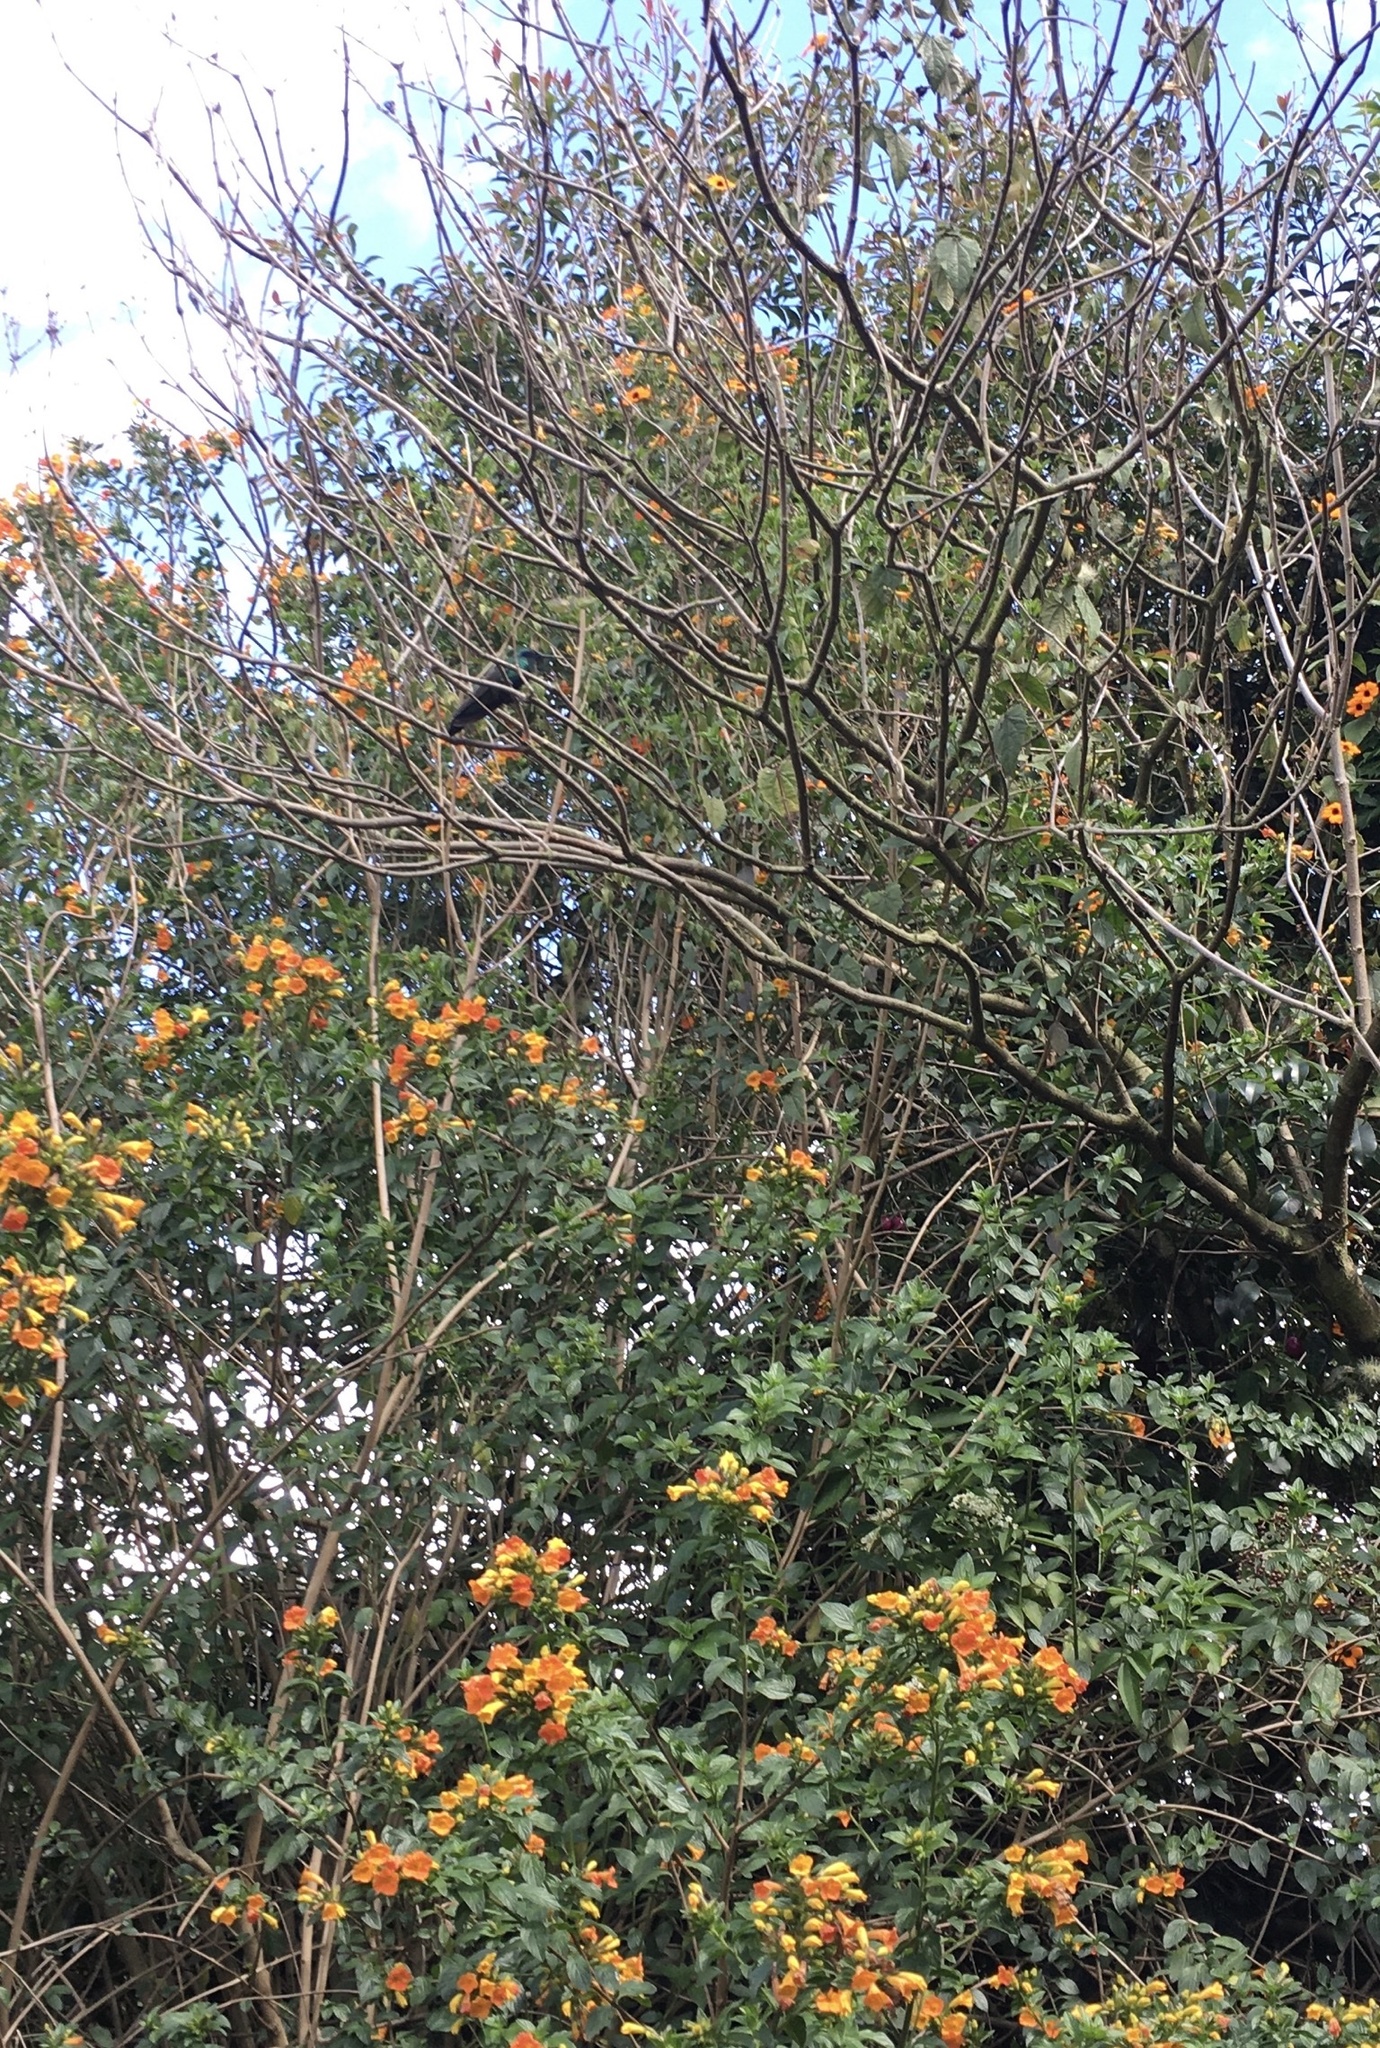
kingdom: Animalia
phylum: Chordata
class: Aves
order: Apodiformes
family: Trochilidae
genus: Colibri
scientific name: Colibri coruscans
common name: Sparkling violetear
